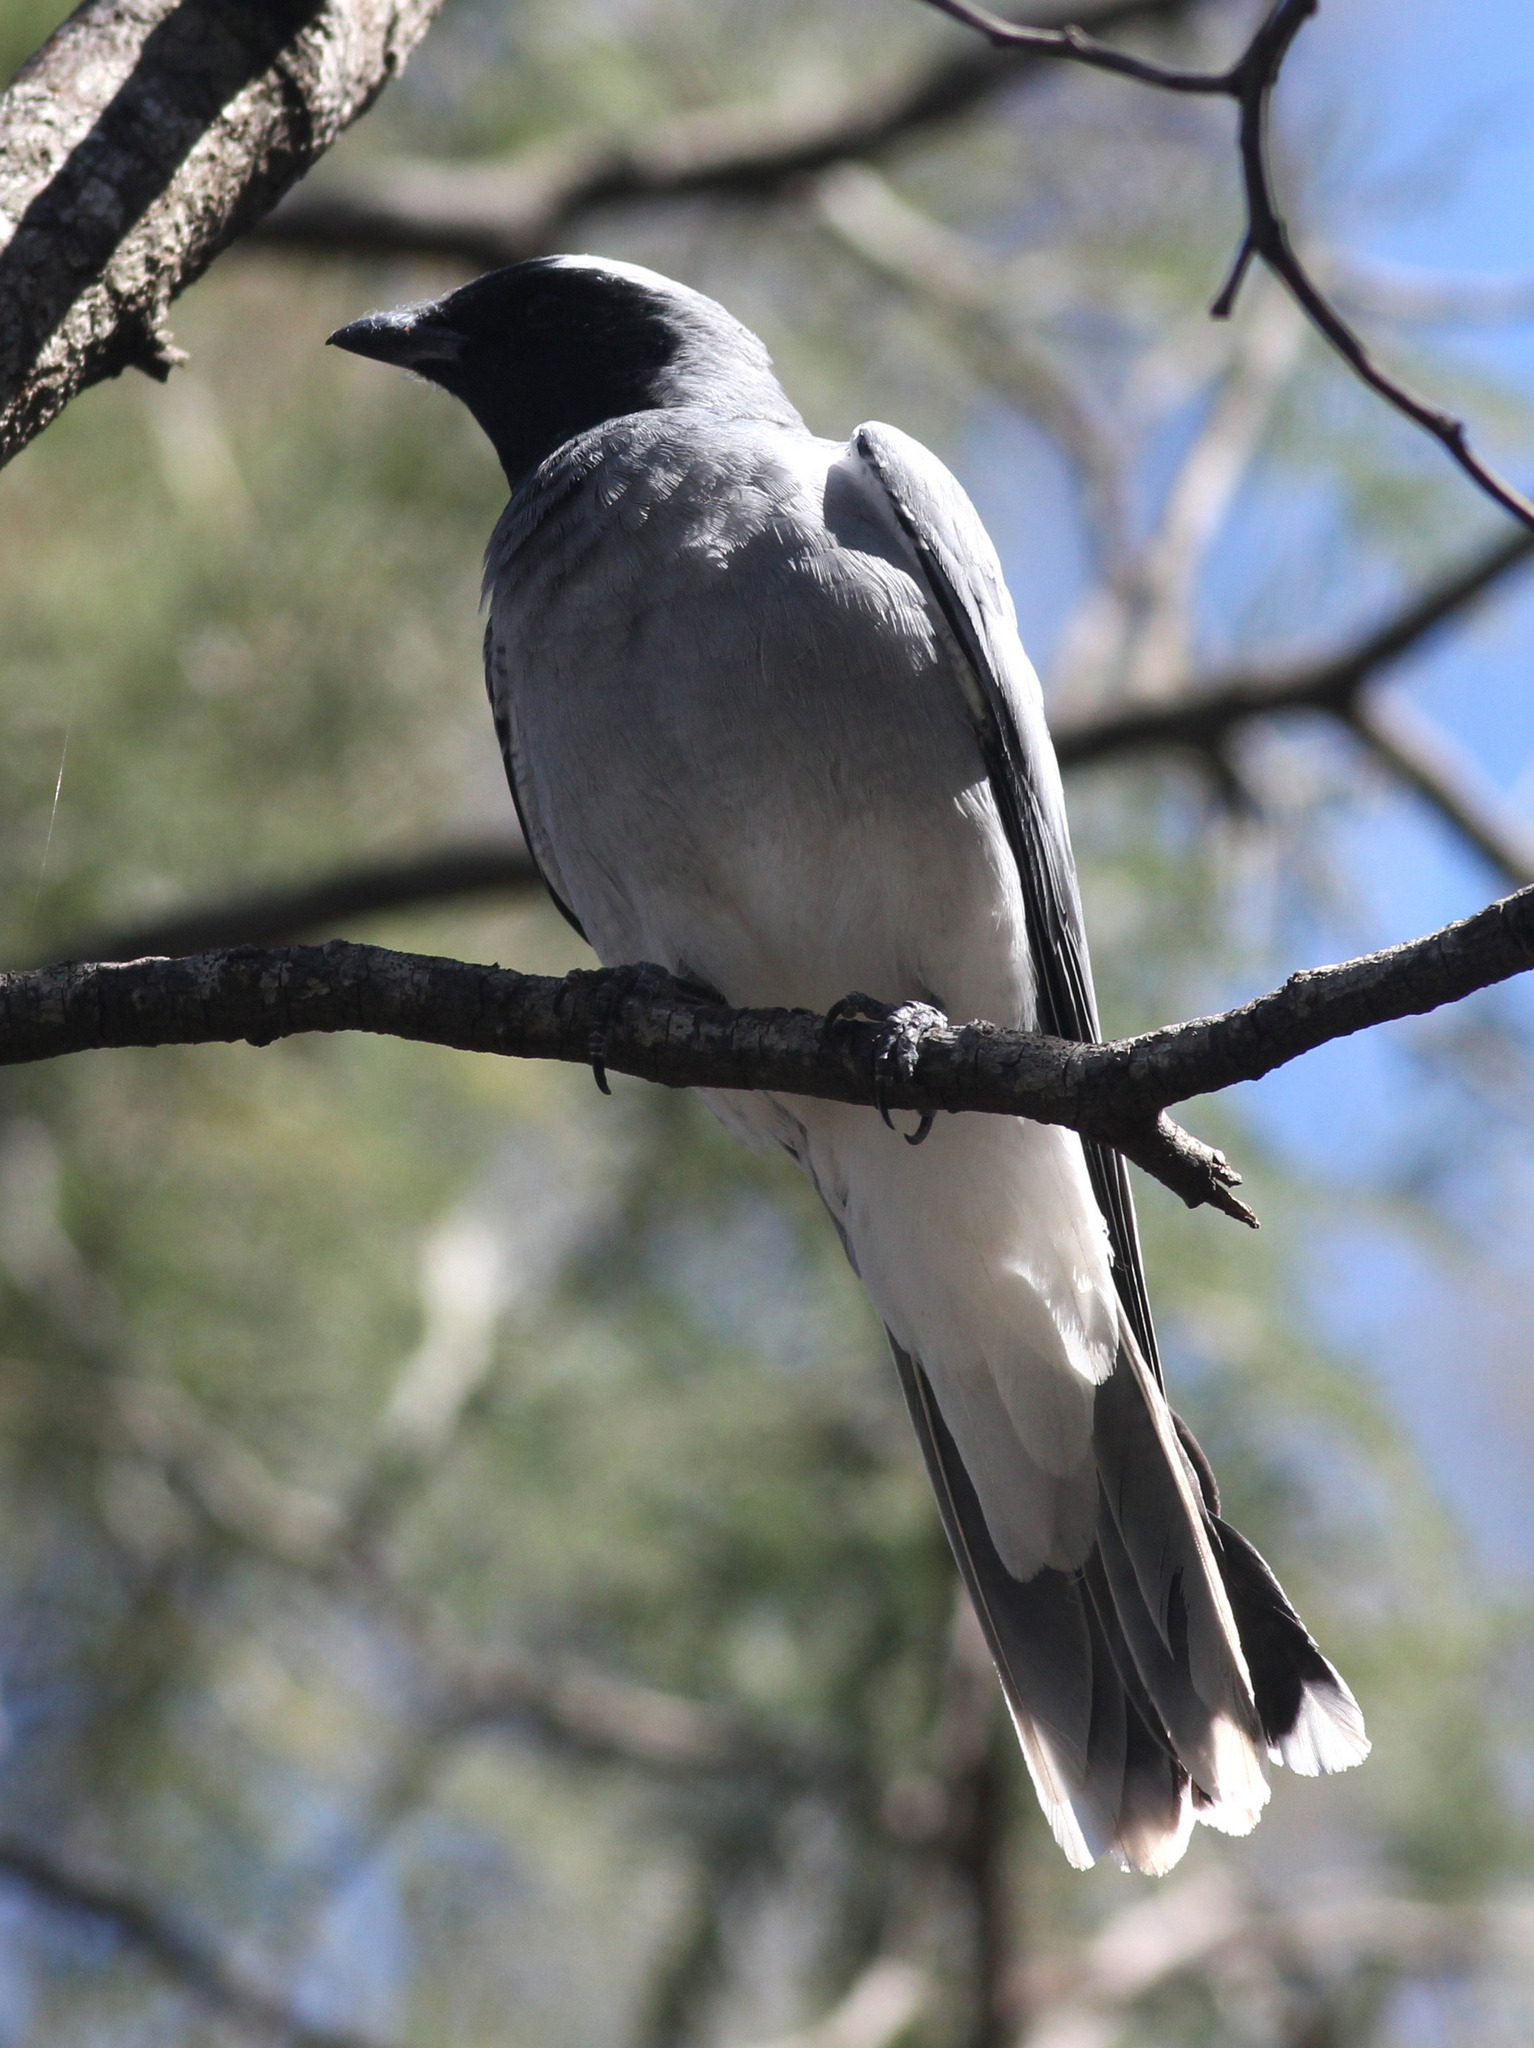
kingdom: Animalia
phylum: Chordata
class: Aves
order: Passeriformes
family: Campephagidae
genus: Coracina
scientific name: Coracina novaehollandiae
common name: Black-faced cuckooshrike
